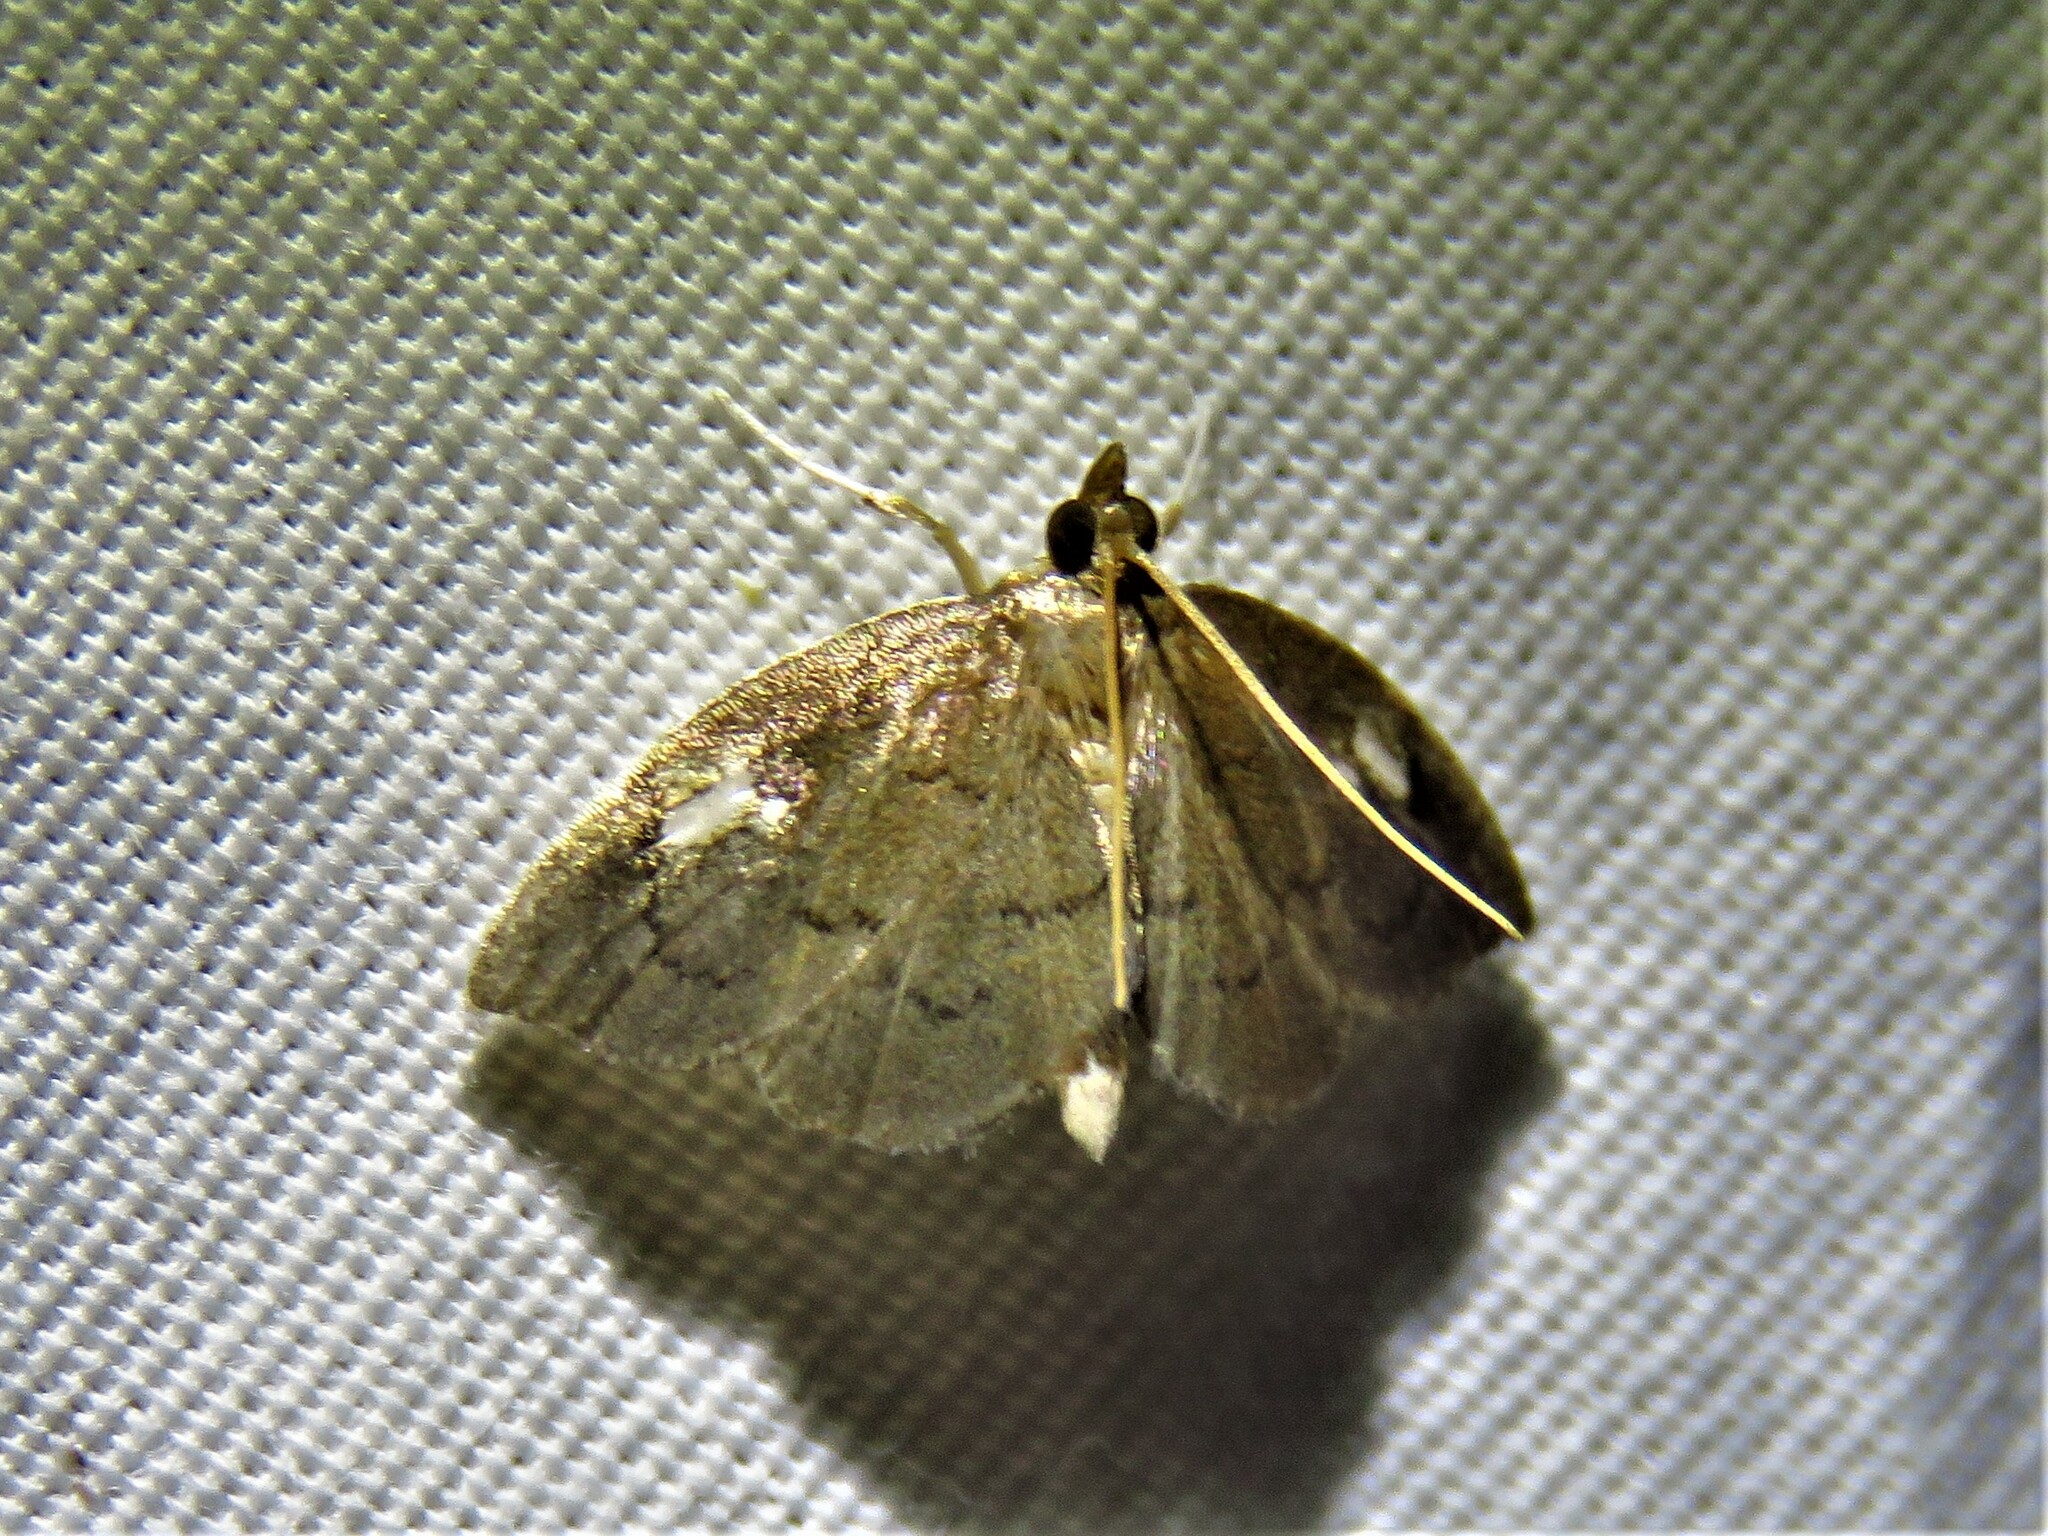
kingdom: Animalia
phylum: Arthropoda
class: Insecta
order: Lepidoptera
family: Crambidae
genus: Perispasta
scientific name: Perispasta caeculalis
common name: Titian peale's moth
